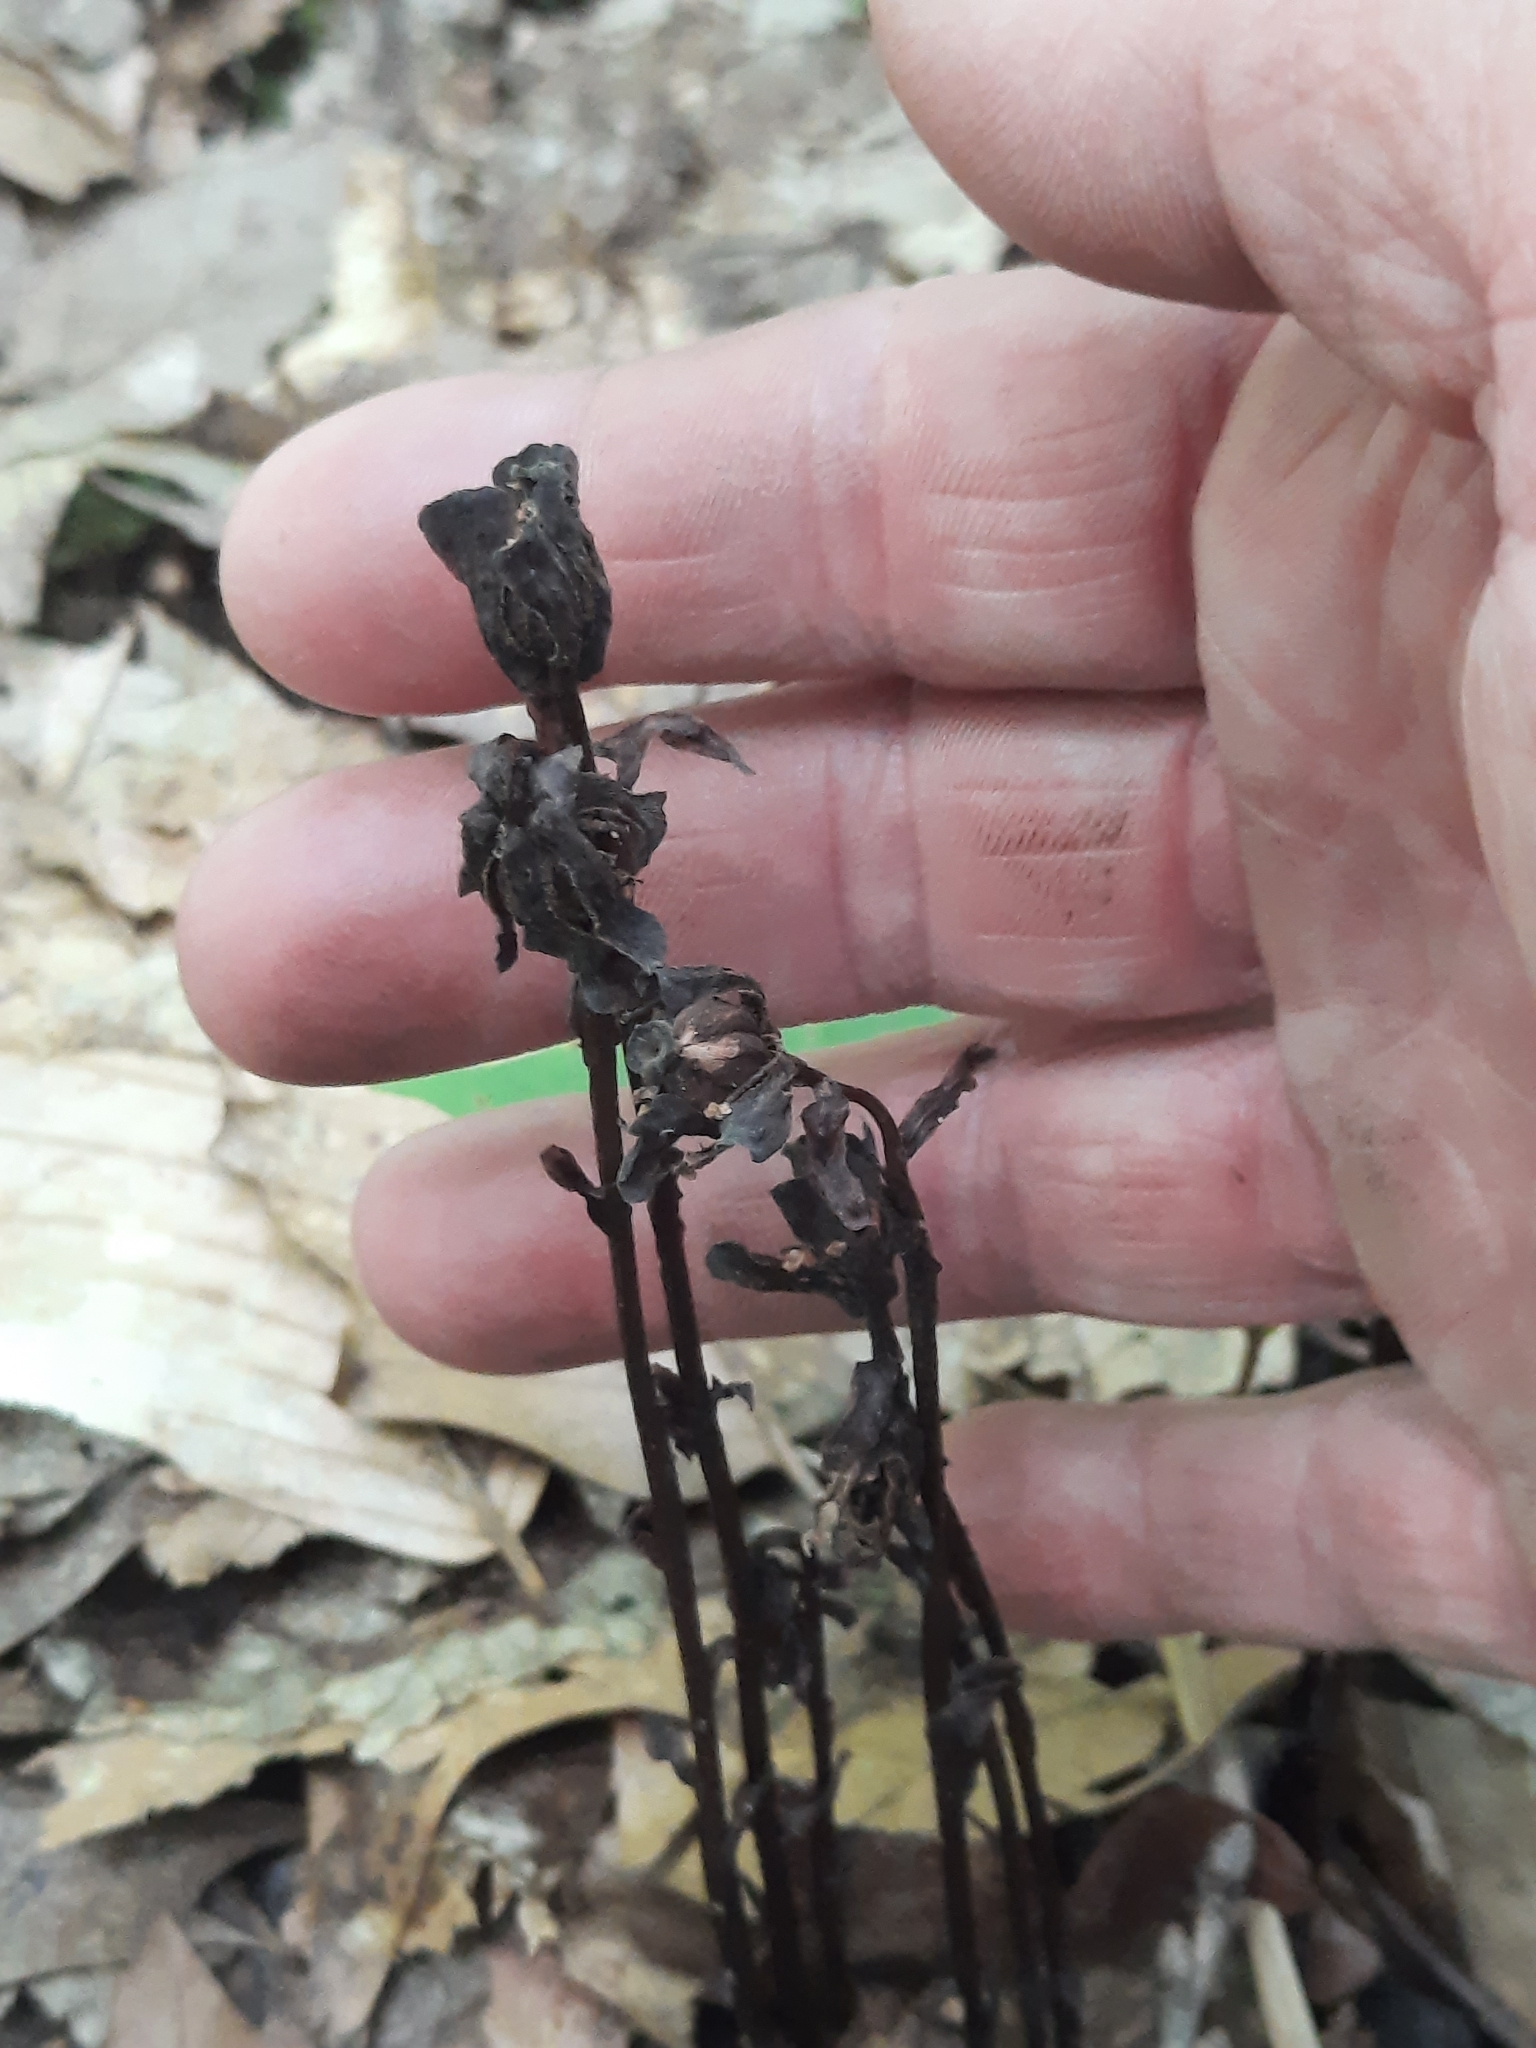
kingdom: Plantae
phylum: Tracheophyta
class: Magnoliopsida
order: Ericales
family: Ericaceae
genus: Monotropa
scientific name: Monotropa uniflora
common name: Convulsion root
